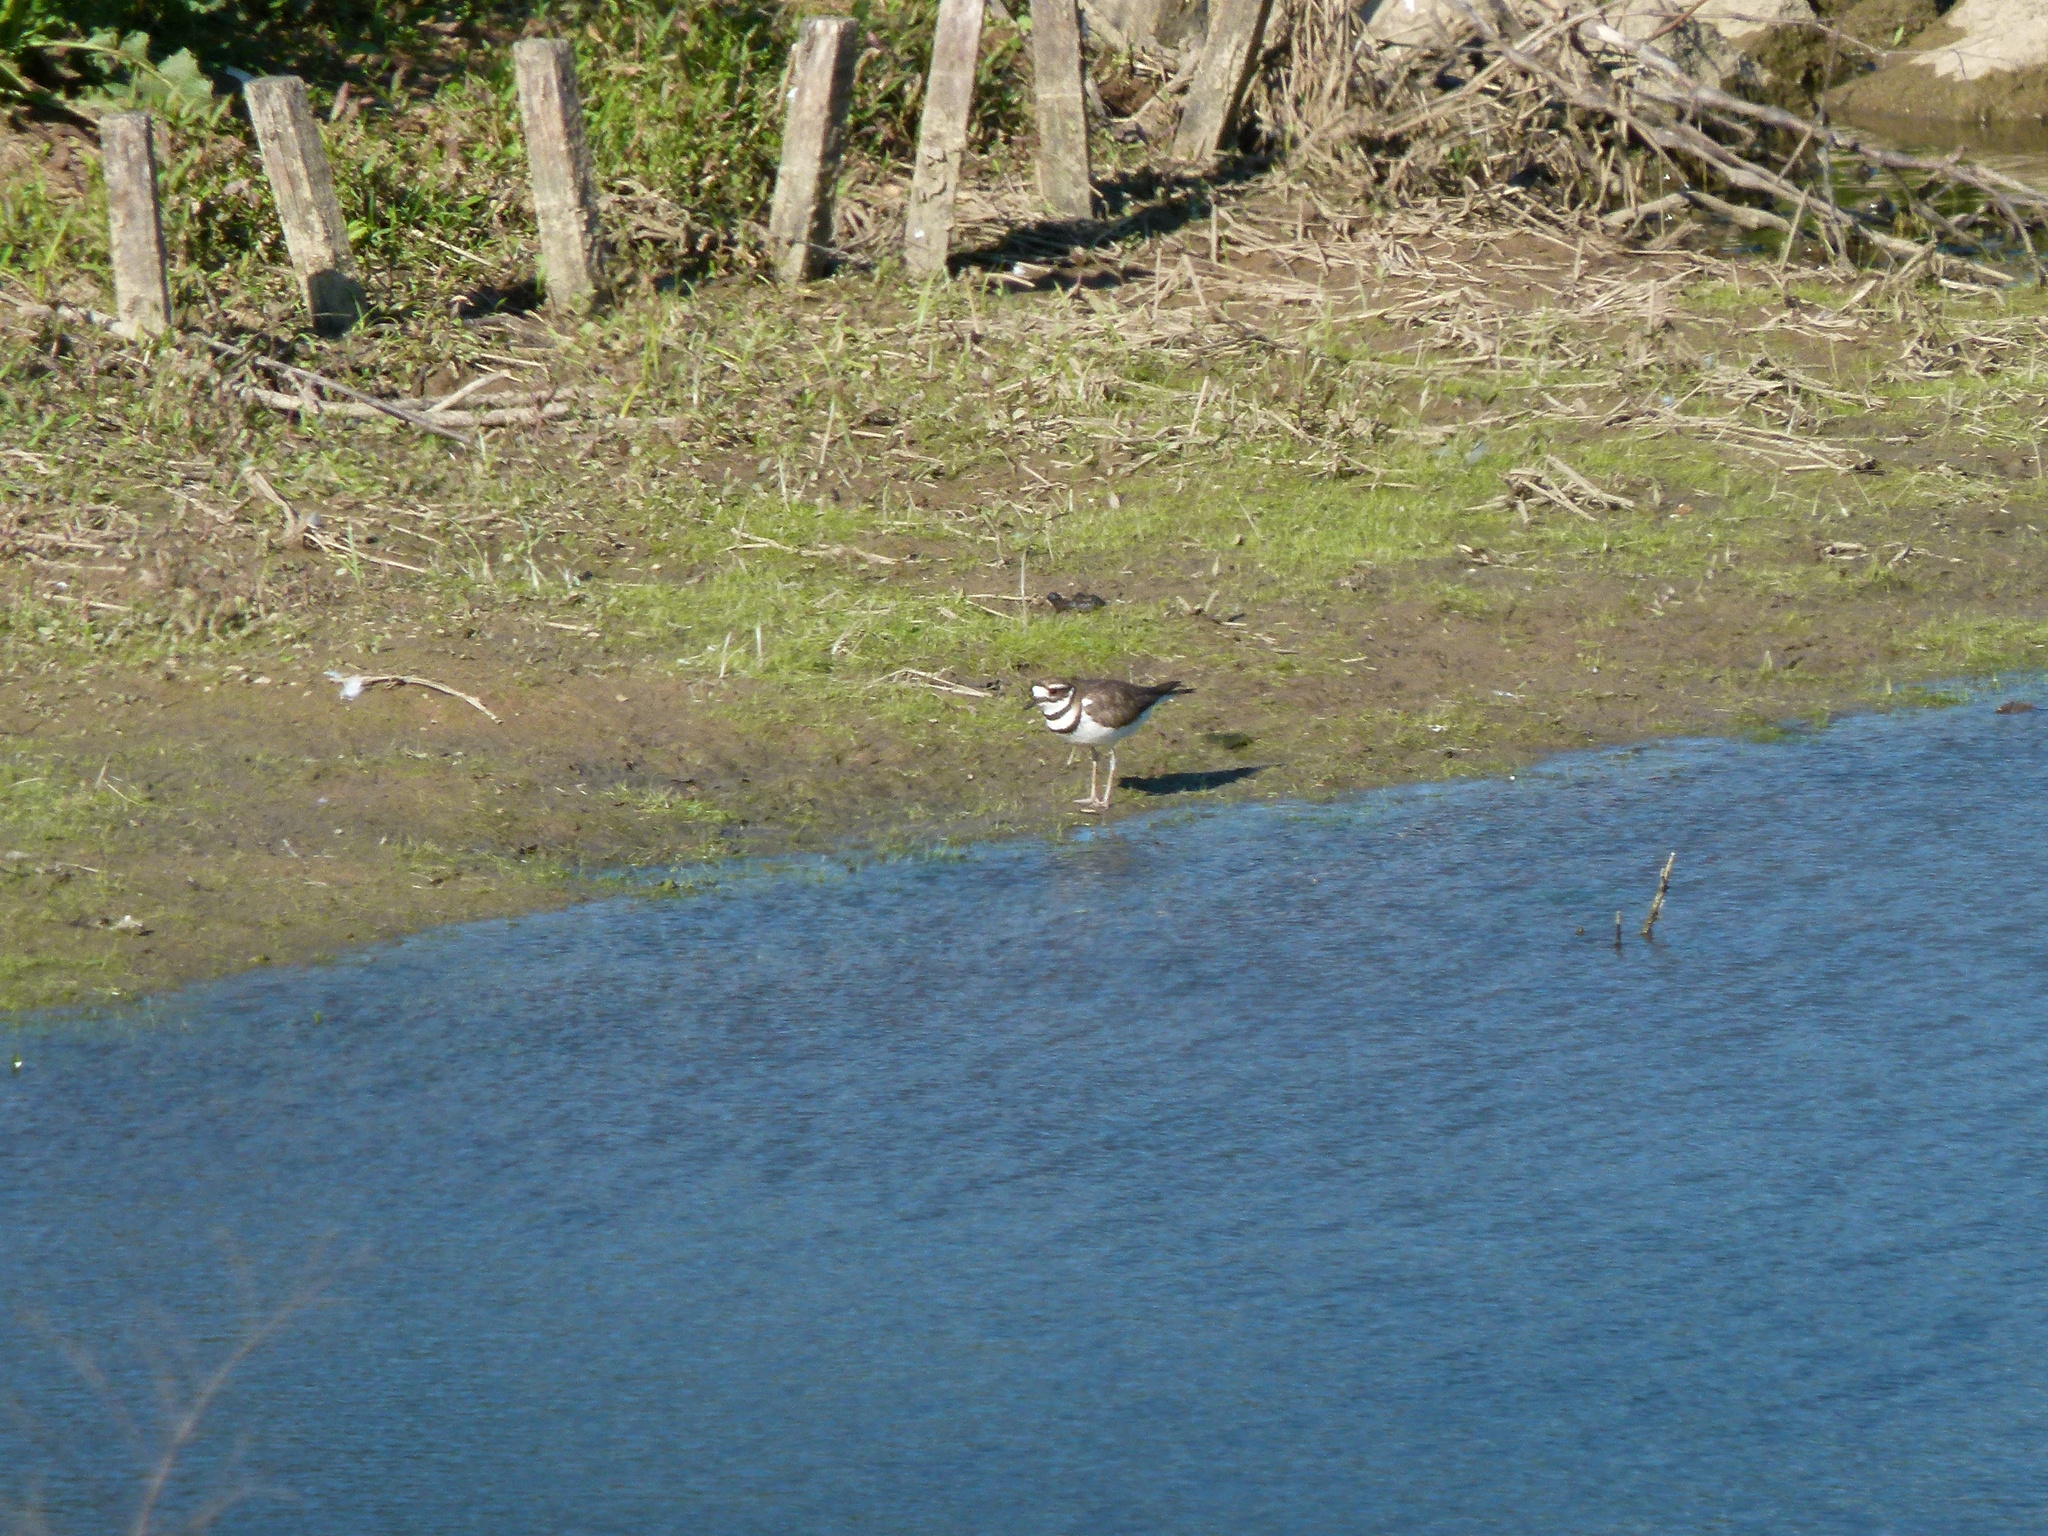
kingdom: Animalia
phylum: Chordata
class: Aves
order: Charadriiformes
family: Charadriidae
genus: Charadrius
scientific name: Charadrius vociferus
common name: Killdeer
